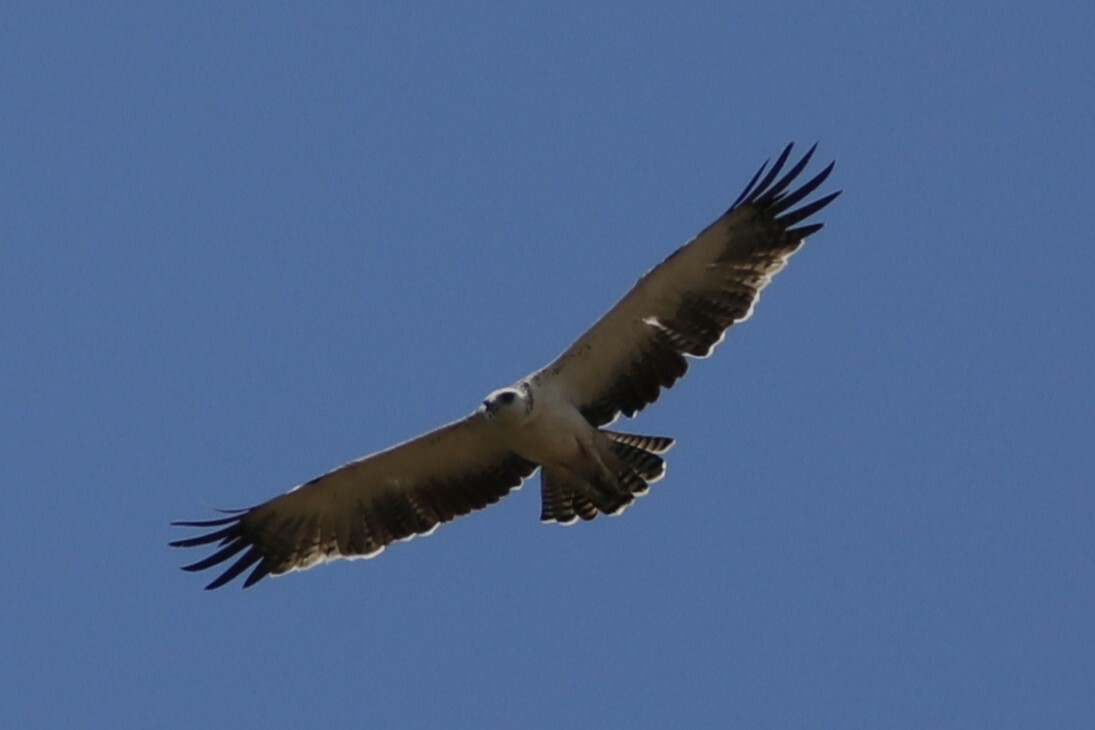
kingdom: Animalia
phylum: Chordata
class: Aves
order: Accipitriformes
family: Accipitridae
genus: Polemaetus
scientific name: Polemaetus bellicosus
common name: Martial eagle
